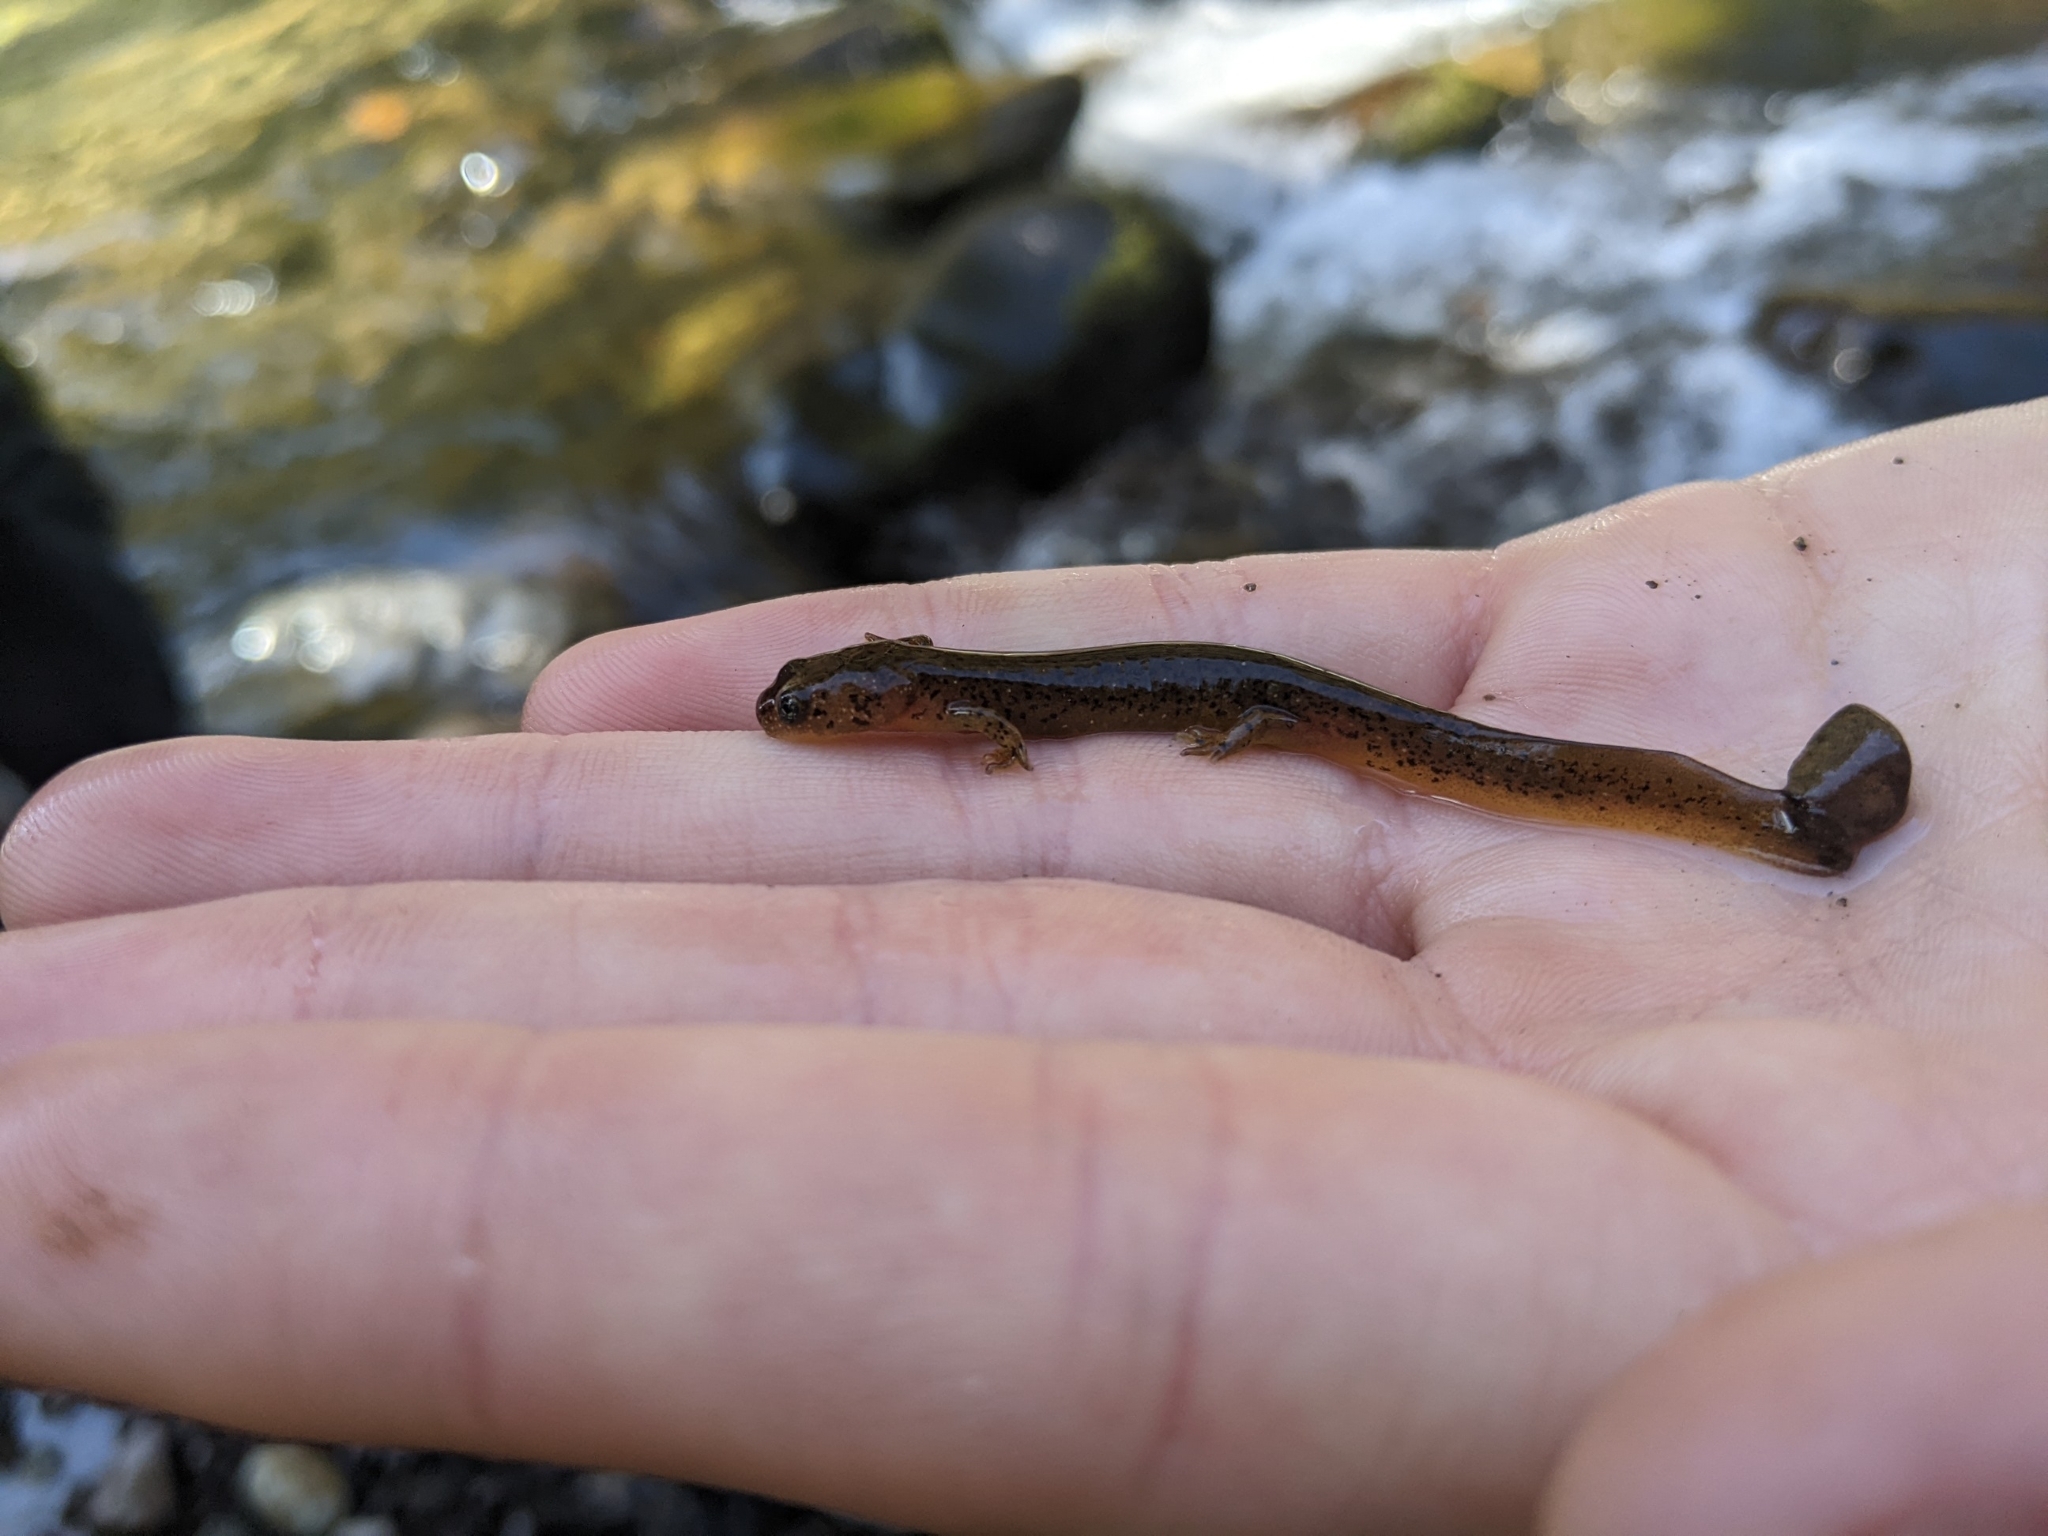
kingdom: Animalia
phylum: Chordata
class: Amphibia
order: Caudata
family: Rhyacotritonidae
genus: Rhyacotriton
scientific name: Rhyacotriton cascadae
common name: Cascade torrent salamander
